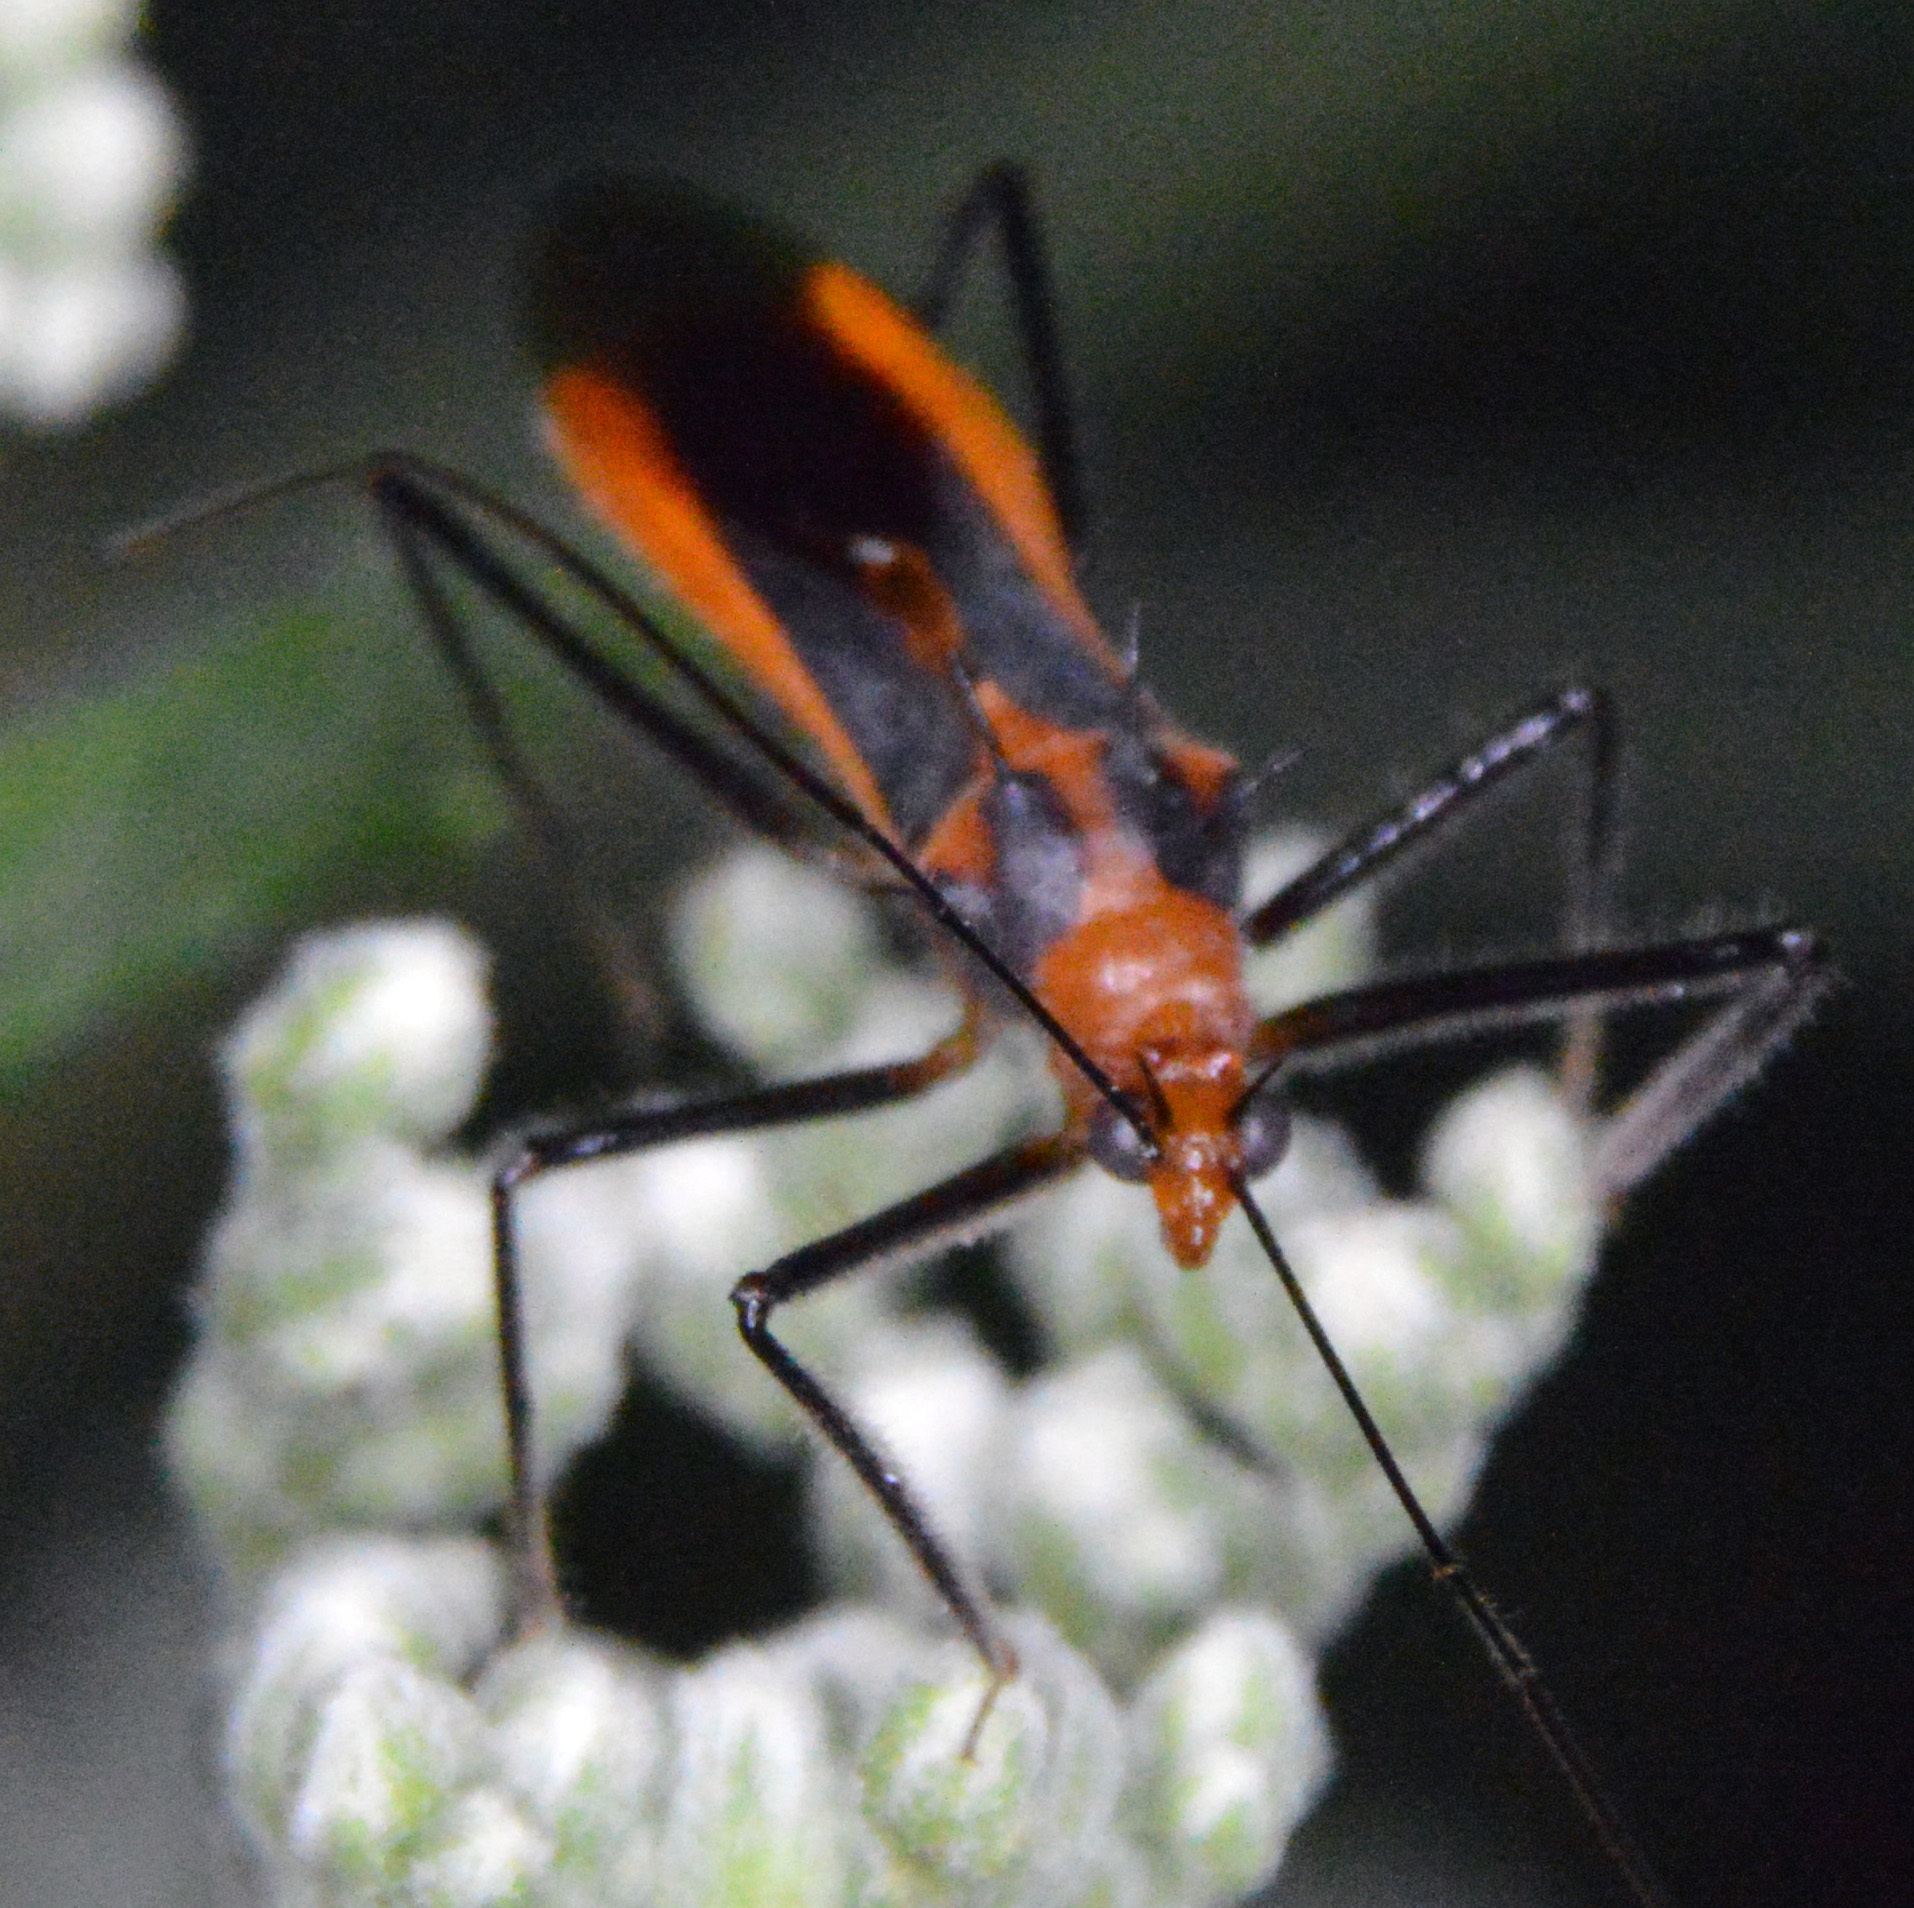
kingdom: Animalia
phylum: Arthropoda
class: Insecta
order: Hemiptera
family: Reduviidae
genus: Repipta
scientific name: Repipta taurus
